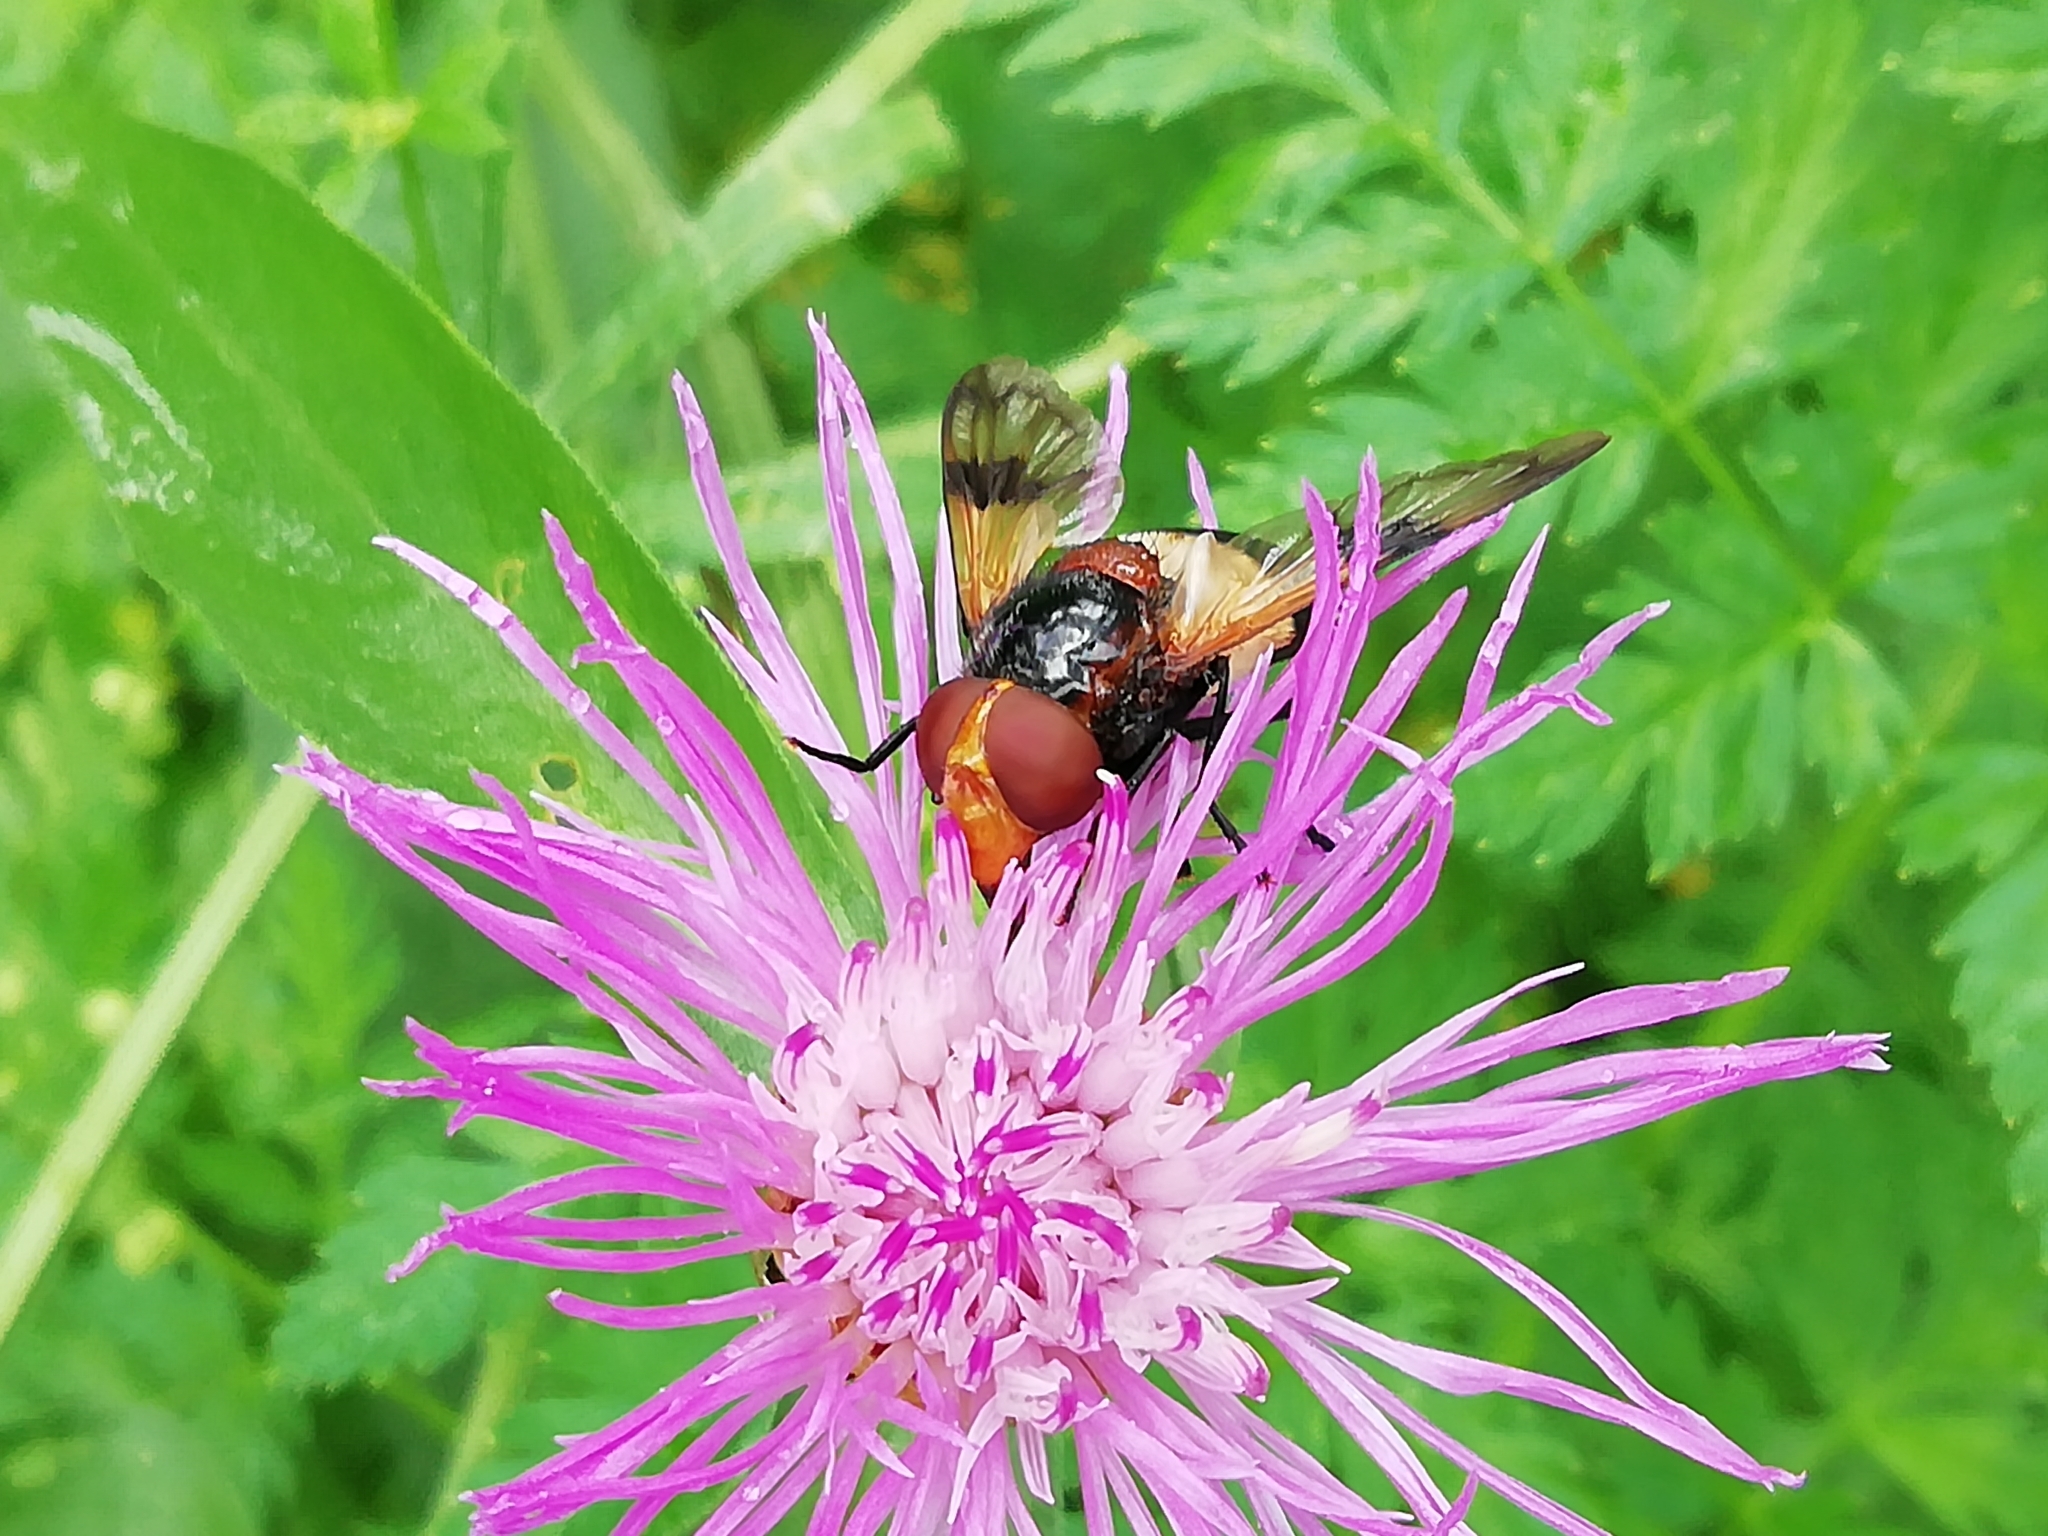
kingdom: Animalia
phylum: Arthropoda
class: Insecta
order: Diptera
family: Syrphidae
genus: Volucella
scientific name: Volucella pellucens
